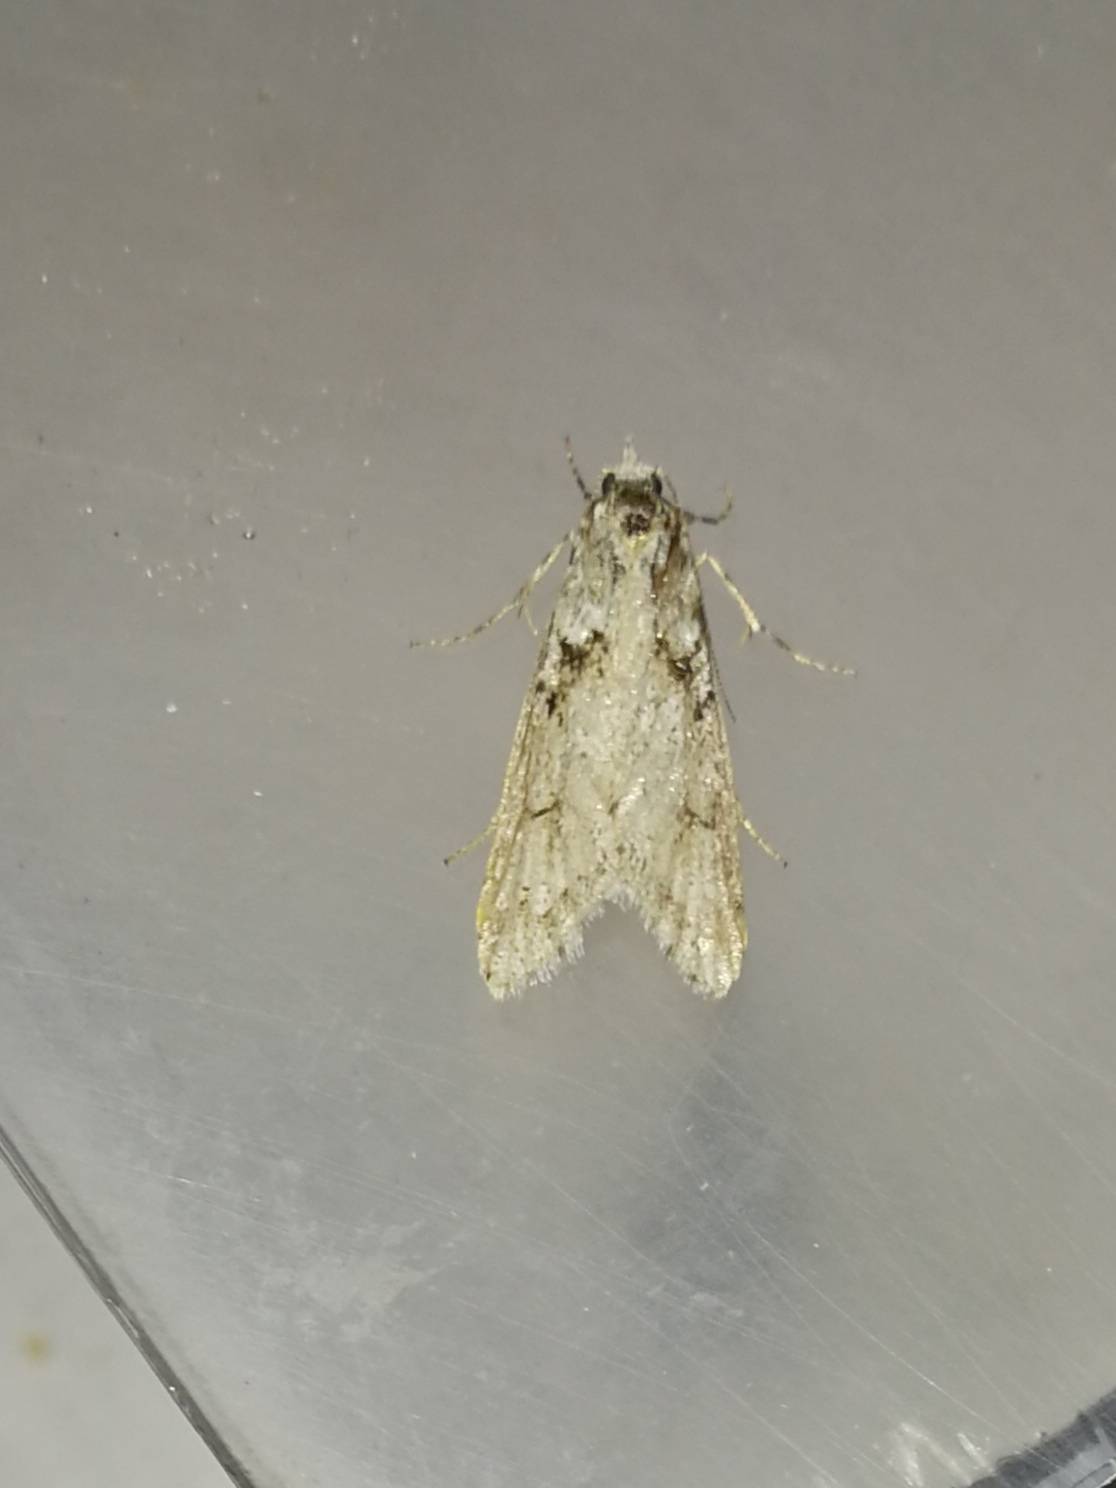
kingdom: Animalia
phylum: Arthropoda
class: Insecta
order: Lepidoptera
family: Lypusidae
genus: Diurnea
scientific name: Diurnea fagella
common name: March tubic
